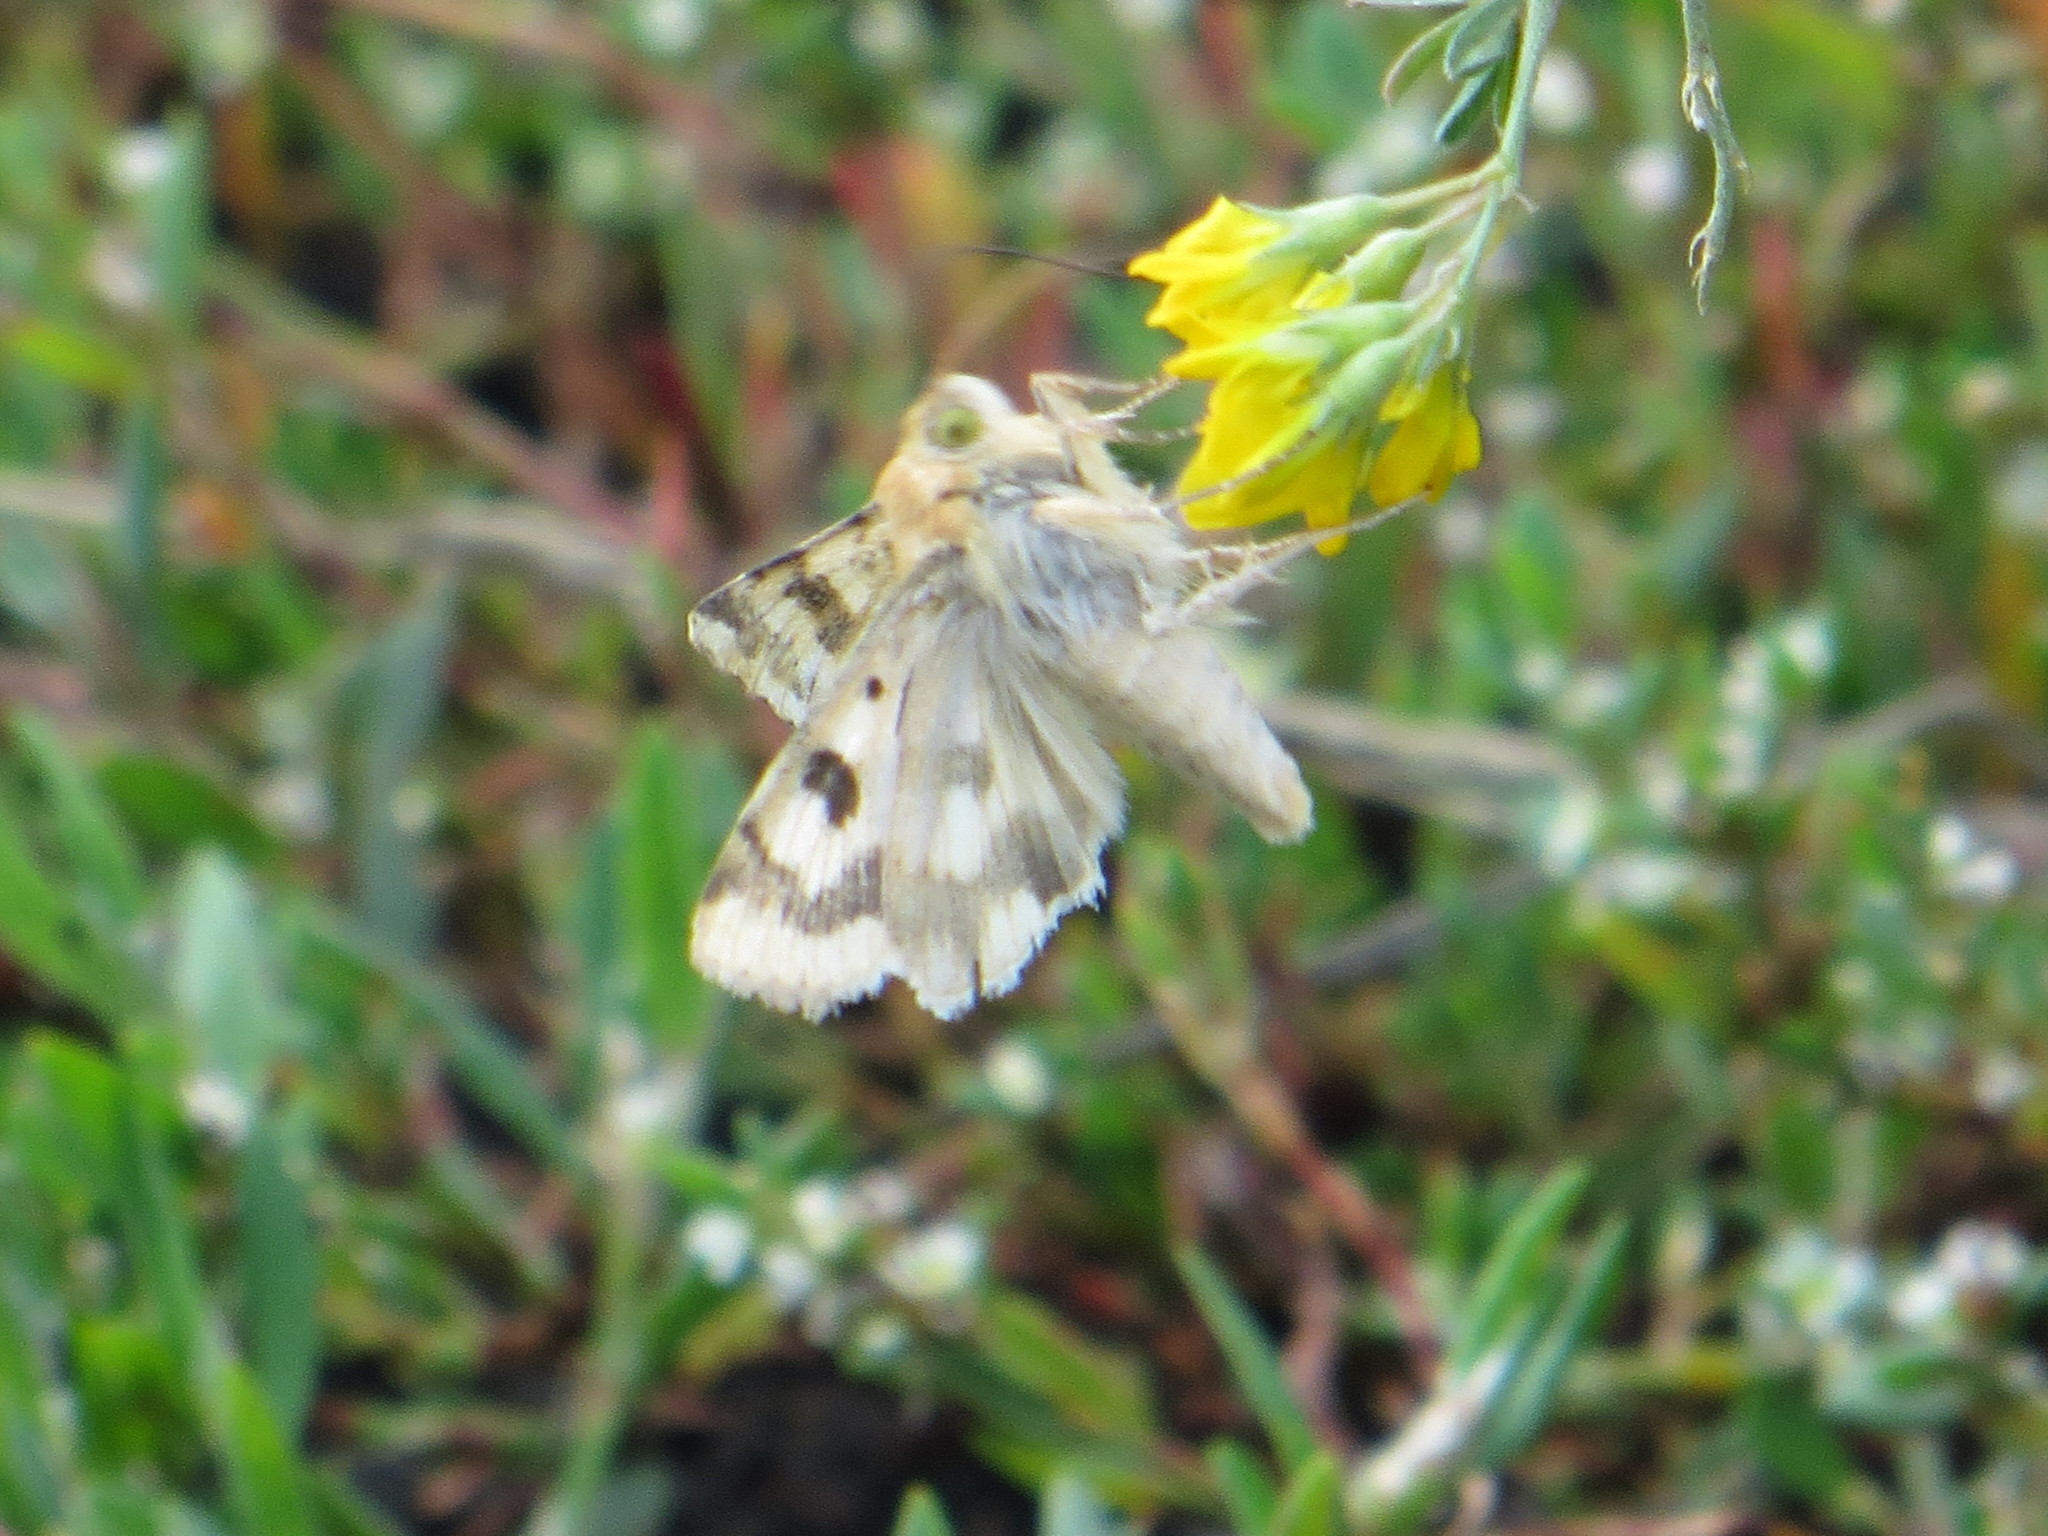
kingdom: Animalia
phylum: Arthropoda
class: Insecta
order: Lepidoptera
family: Noctuidae
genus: Heliothis
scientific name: Heliothis viriplaca
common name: Marbled clover
